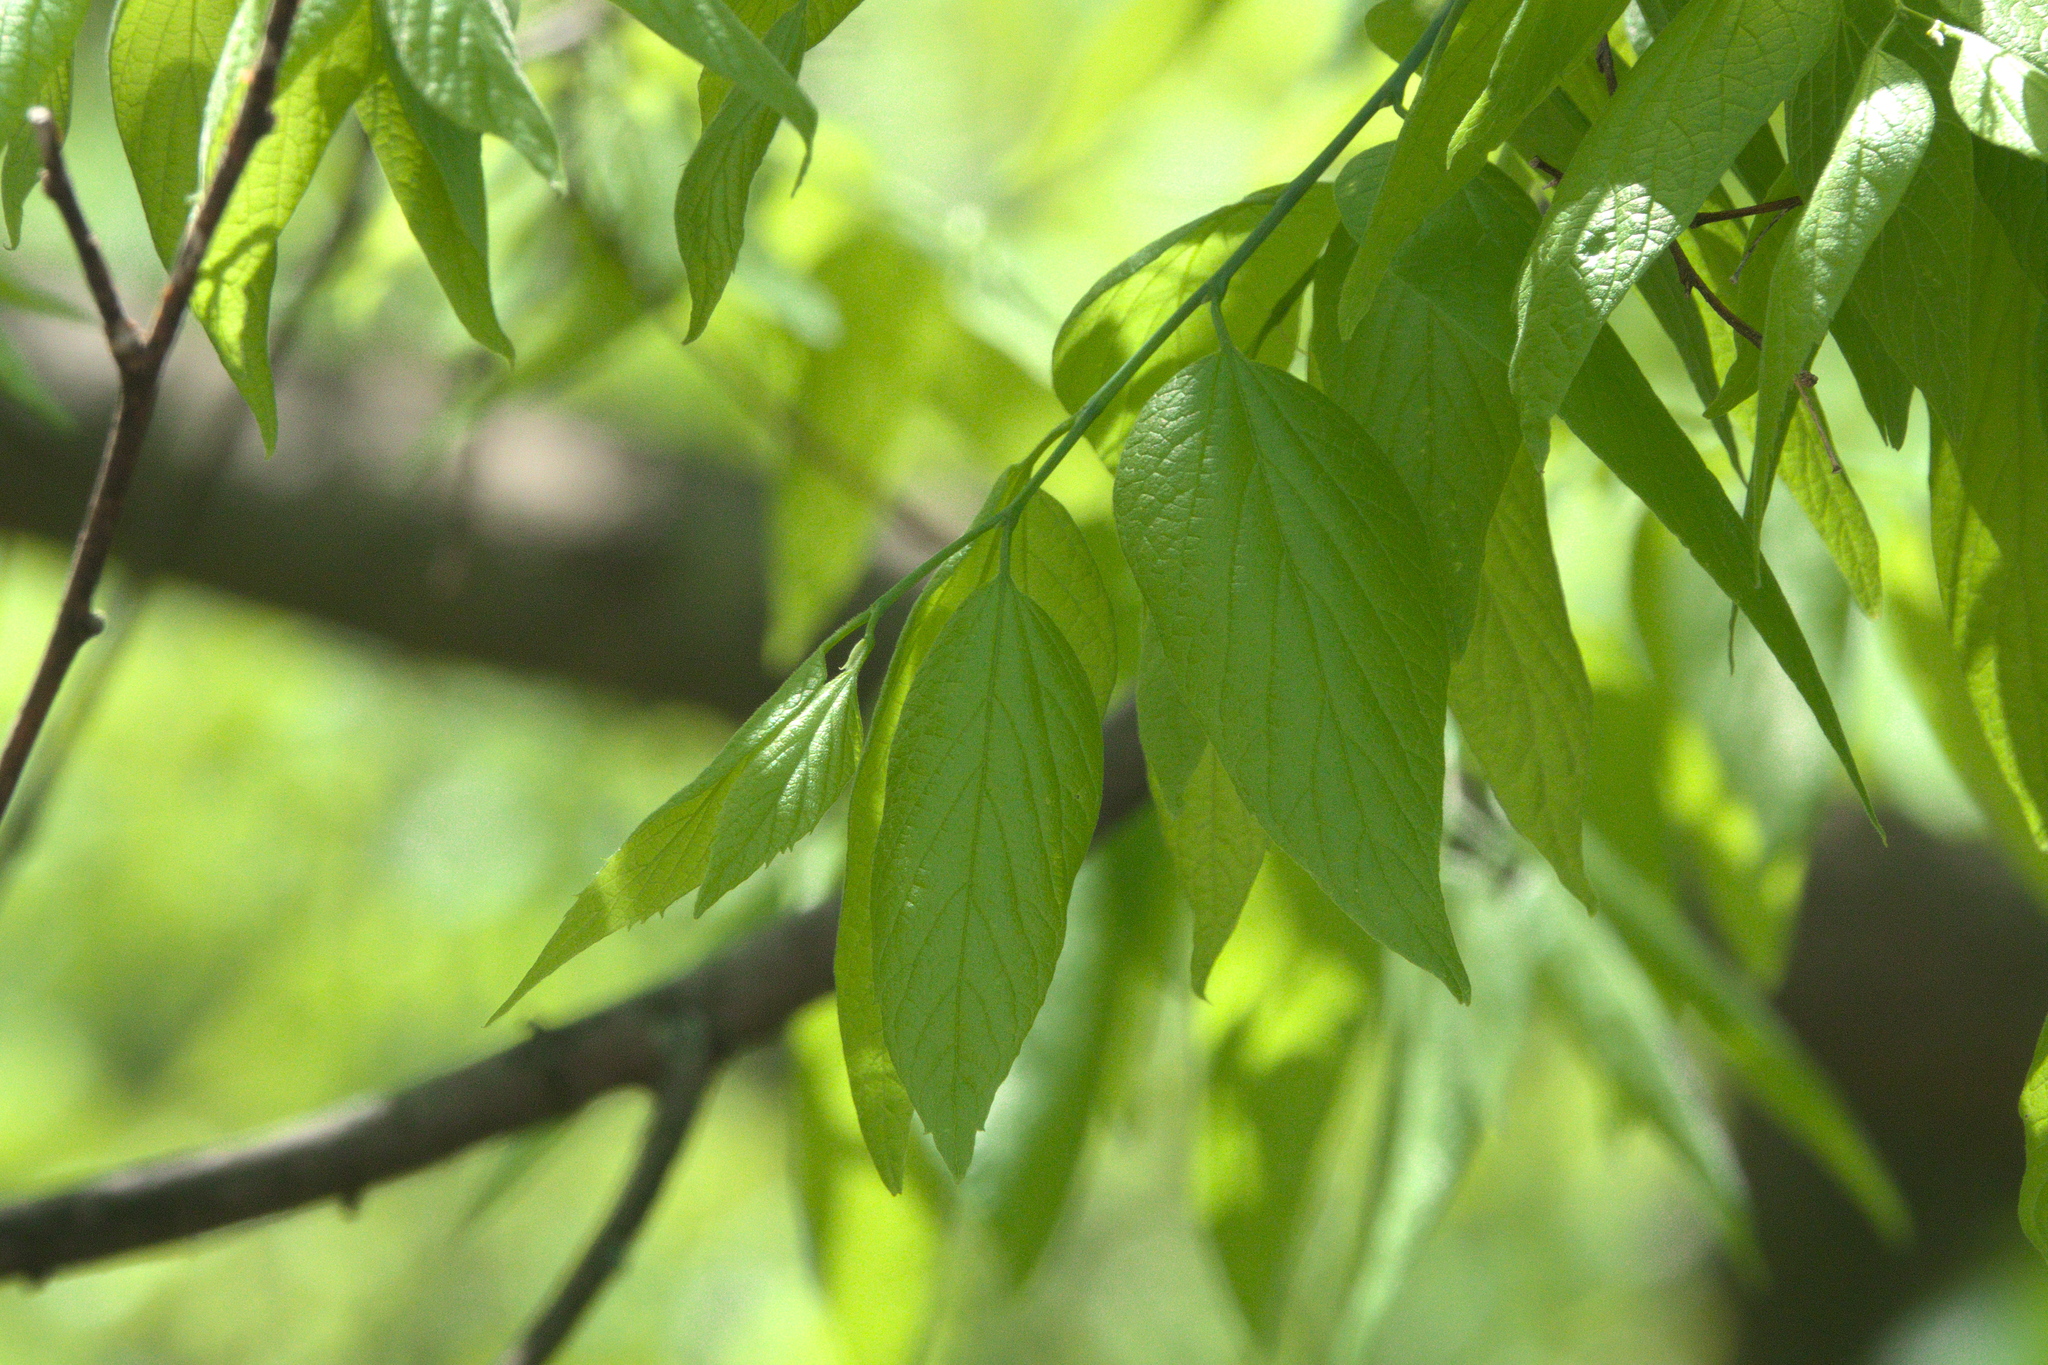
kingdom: Plantae
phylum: Tracheophyta
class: Magnoliopsida
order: Rosales
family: Cannabaceae
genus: Celtis
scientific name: Celtis laevigata
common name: Sugarberry
